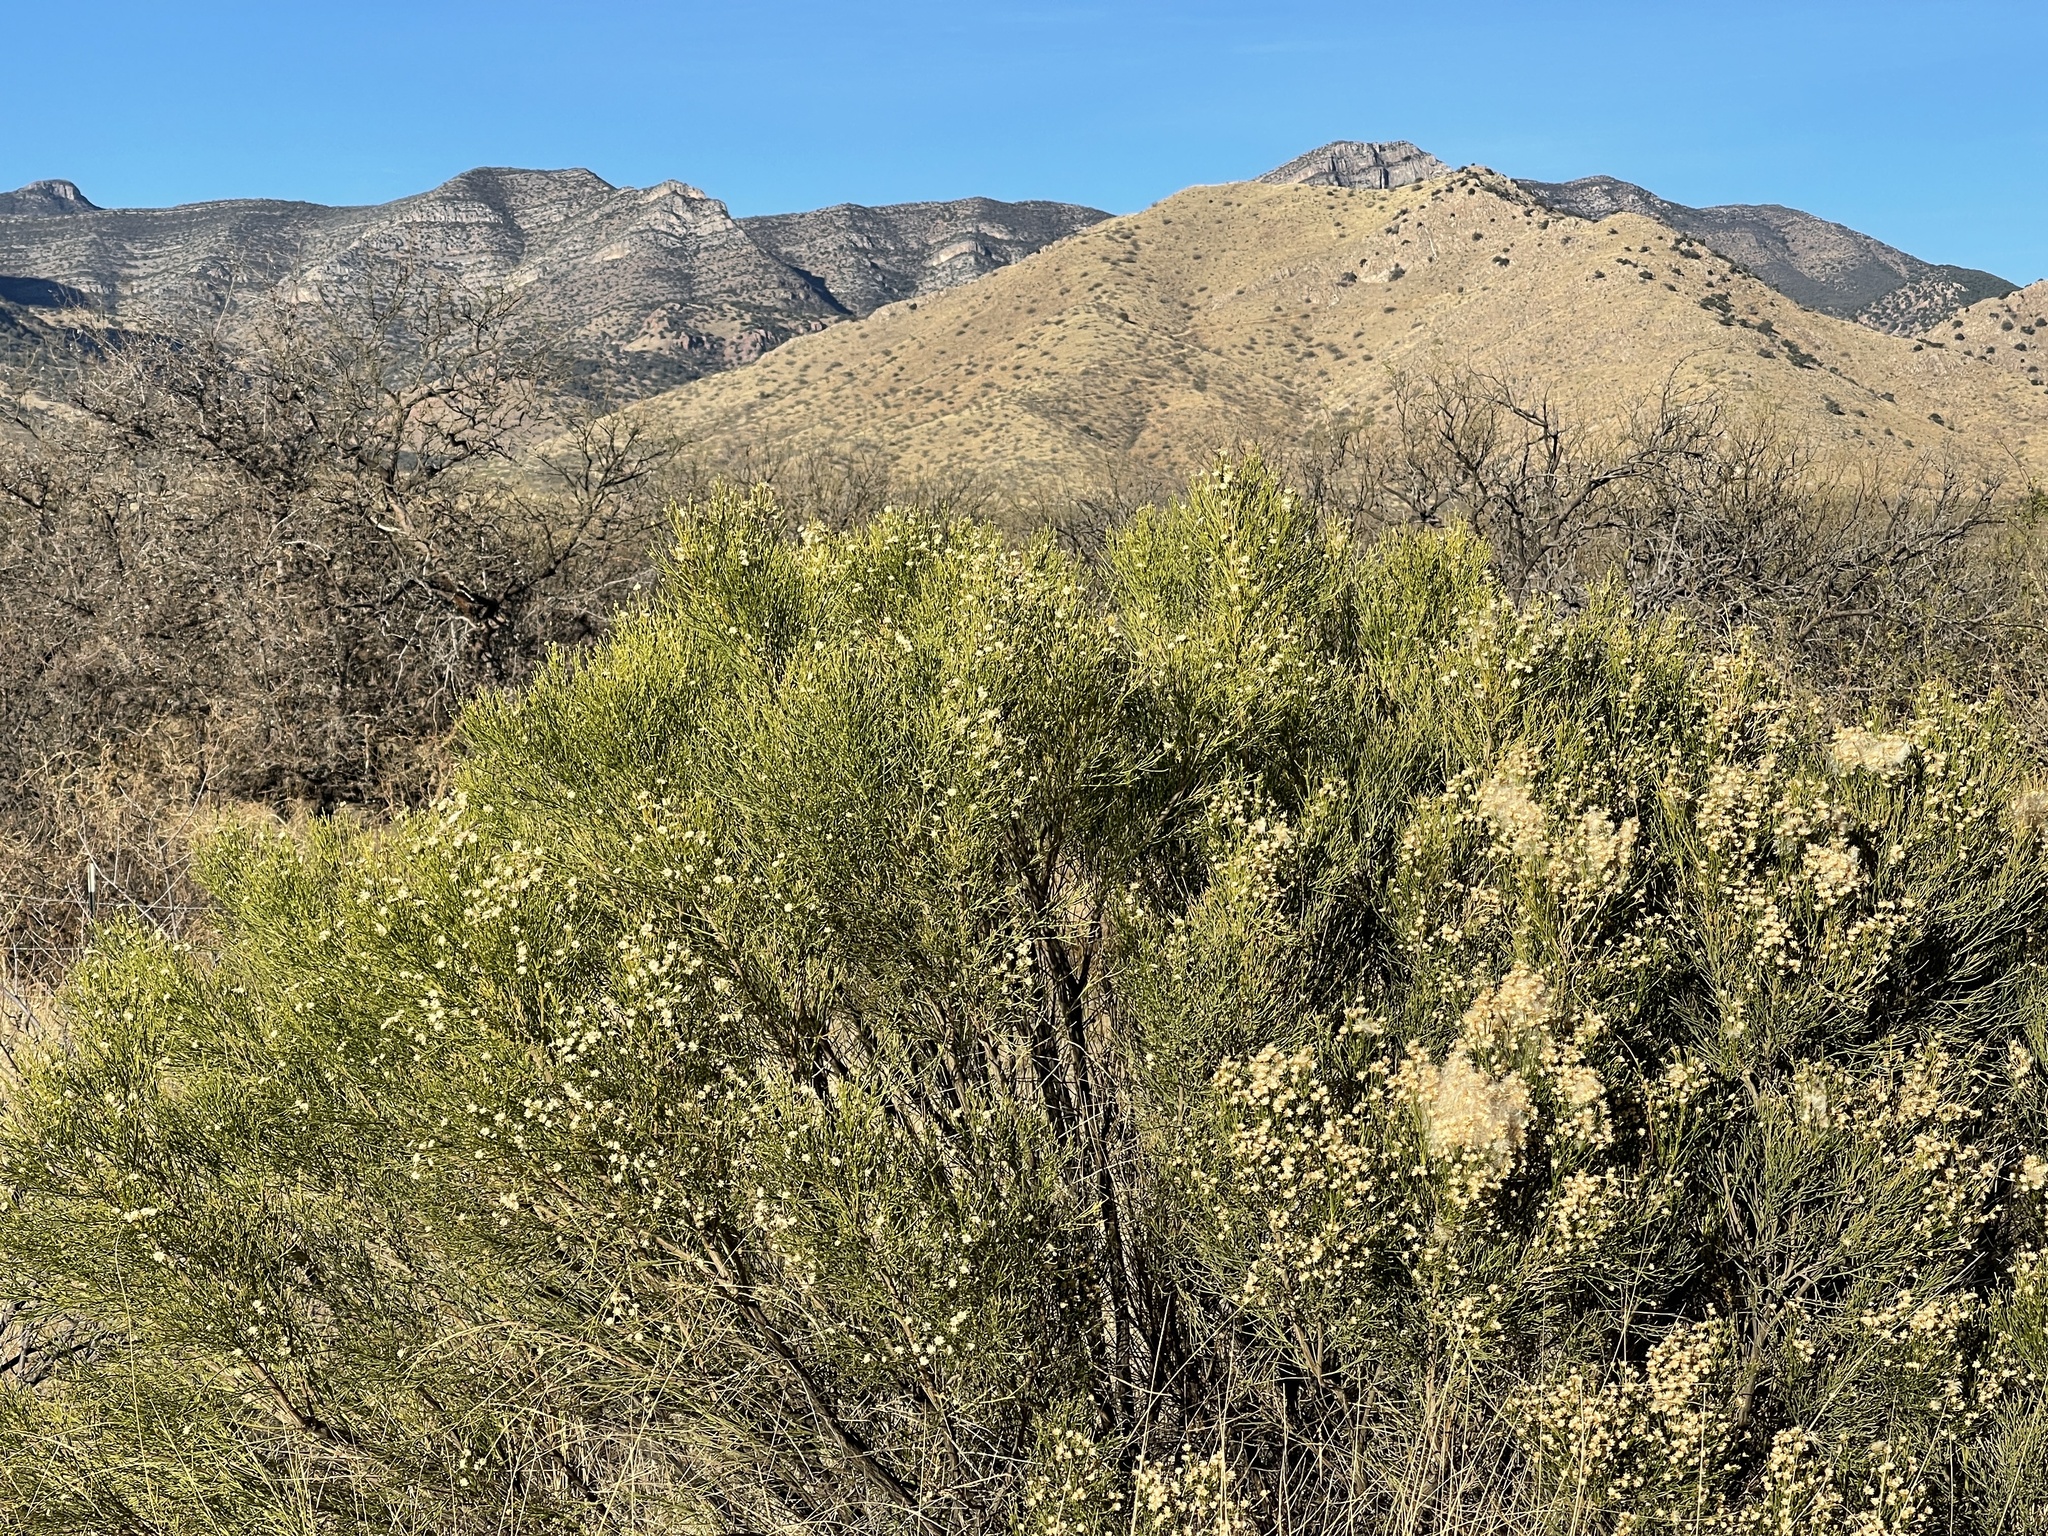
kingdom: Plantae
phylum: Tracheophyta
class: Magnoliopsida
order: Asterales
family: Asteraceae
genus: Baccharis
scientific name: Baccharis sarothroides
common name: Desert-broom
